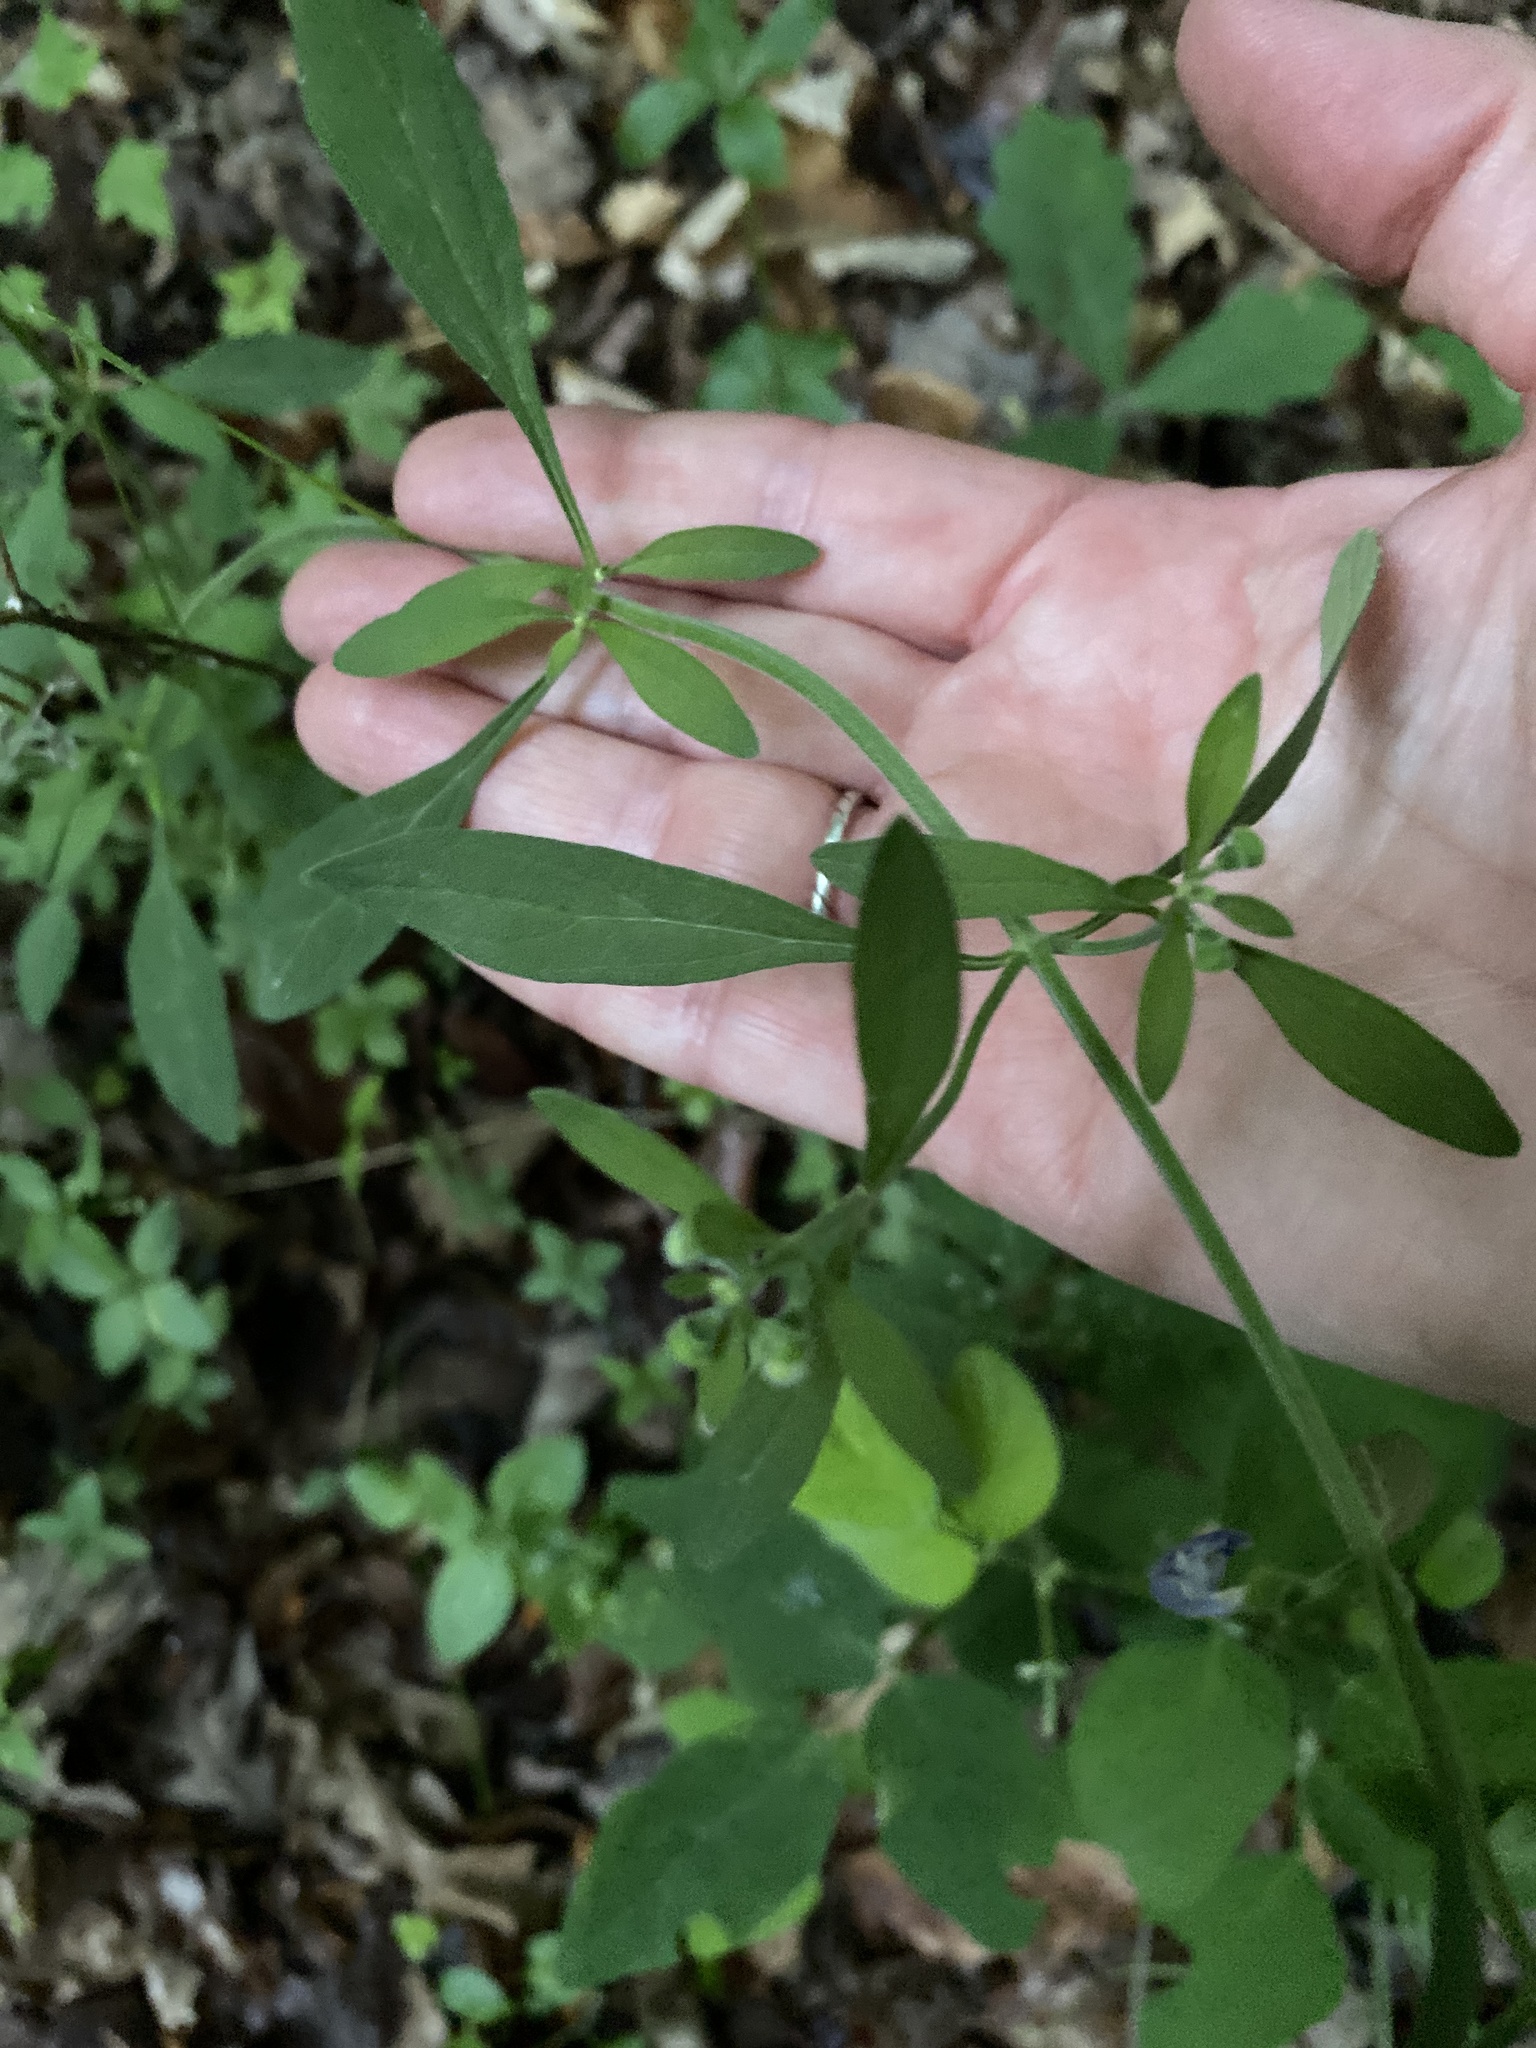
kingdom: Plantae
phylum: Tracheophyta
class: Magnoliopsida
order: Lamiales
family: Lamiaceae
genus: Scutellaria
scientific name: Scutellaria integrifolia
